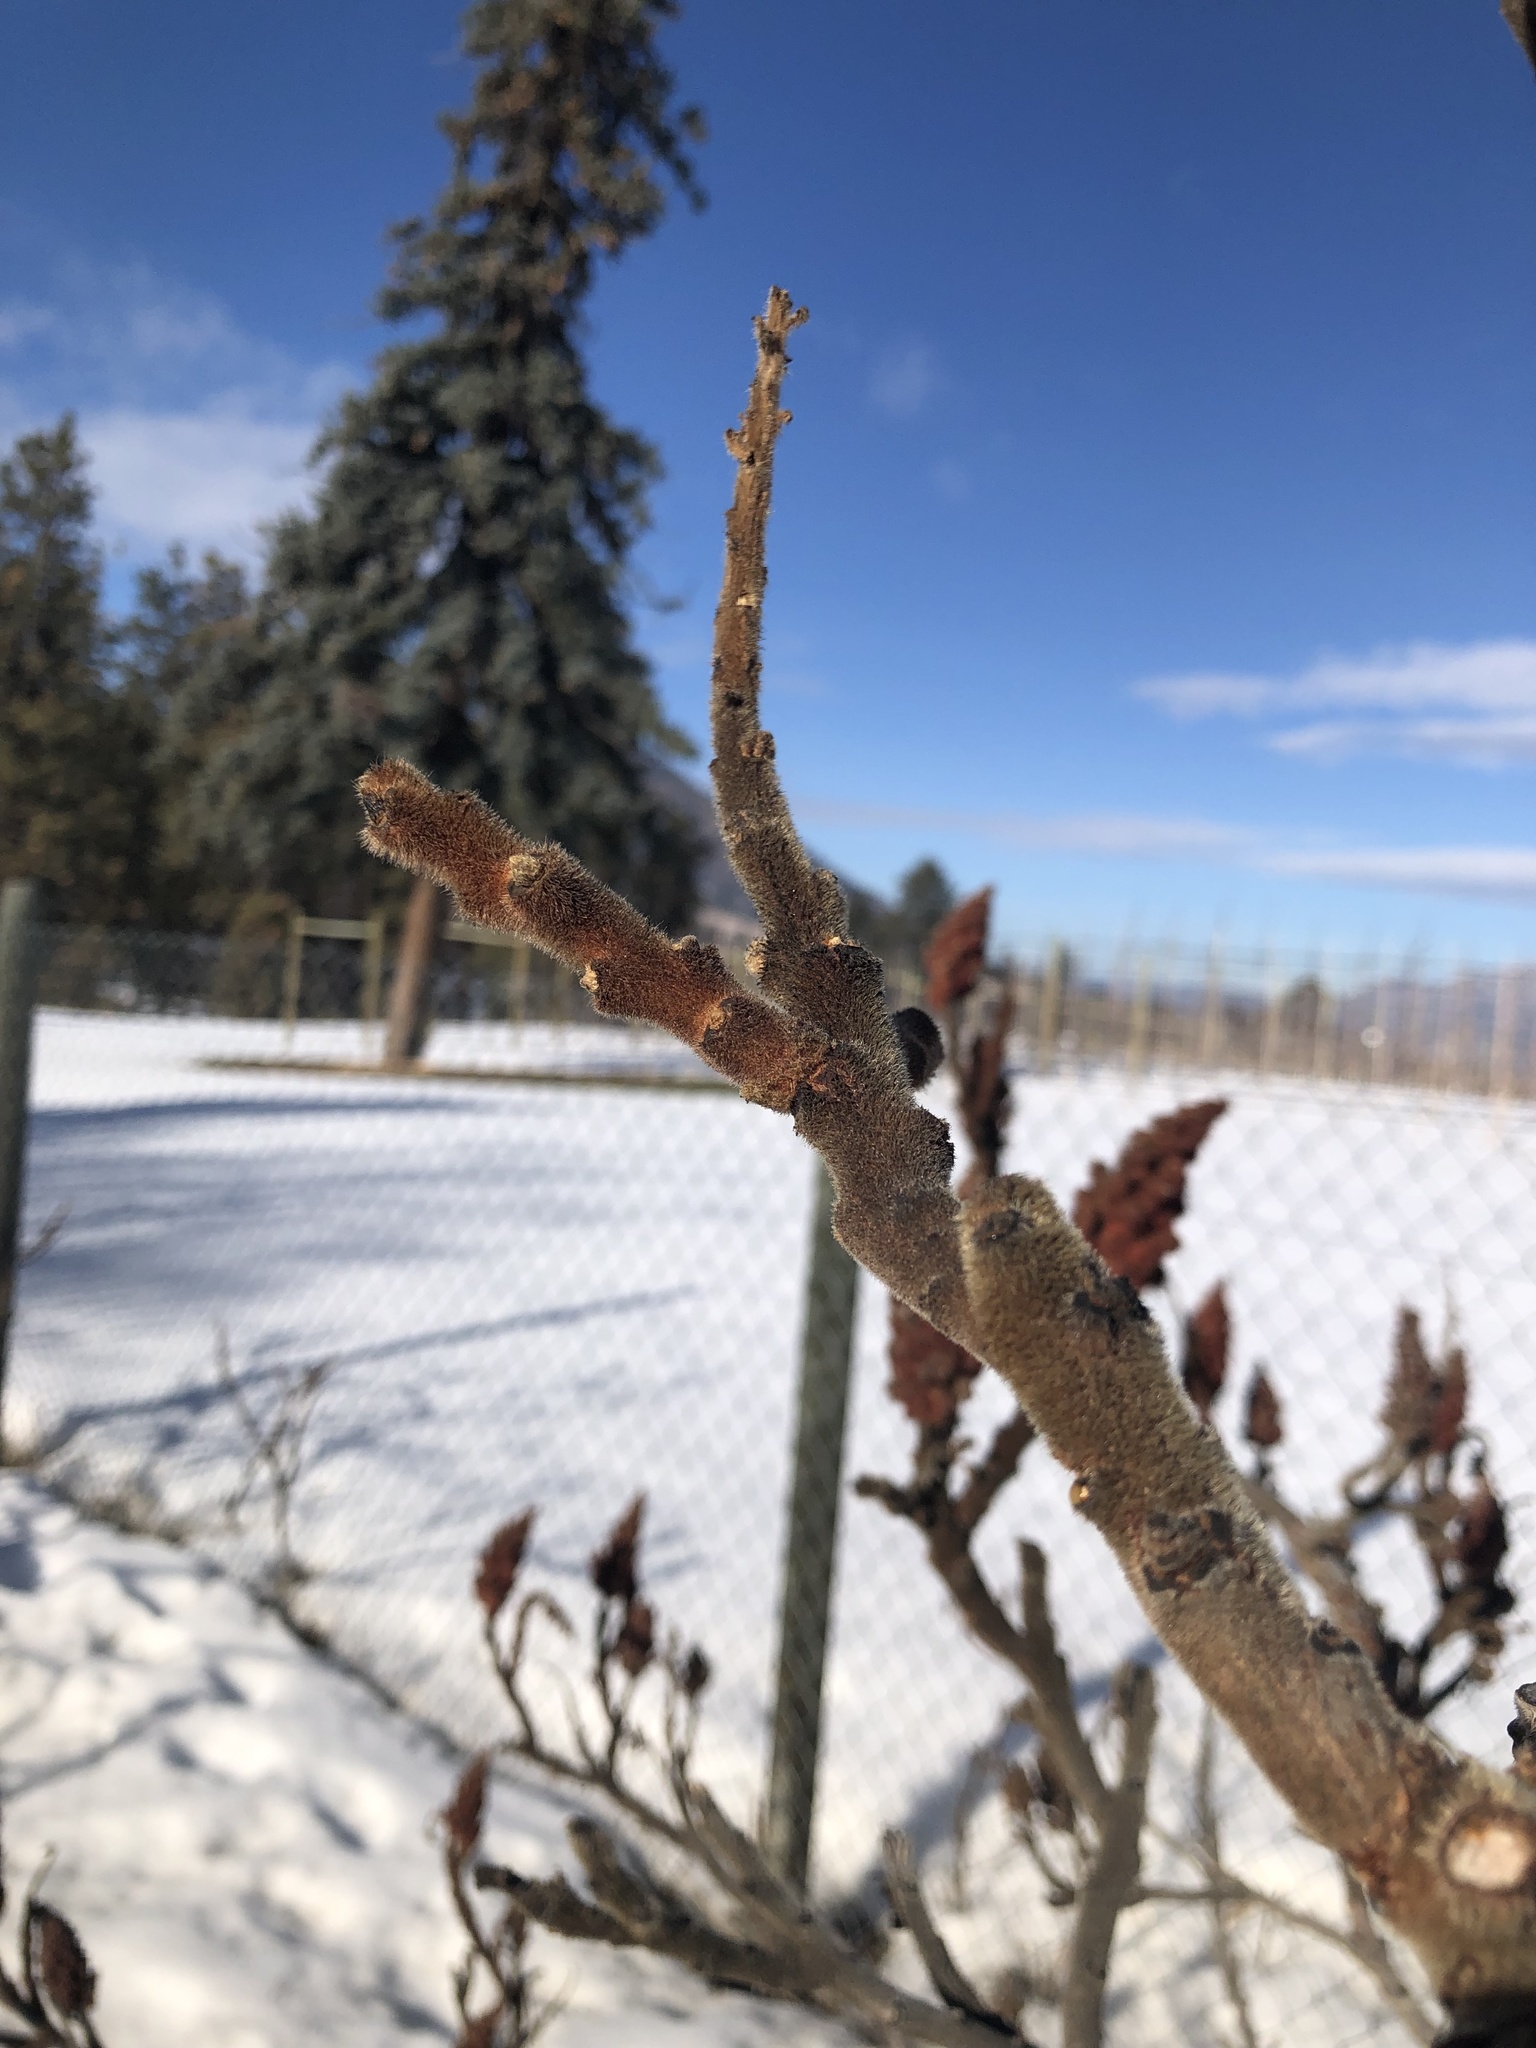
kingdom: Plantae
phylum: Tracheophyta
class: Magnoliopsida
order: Sapindales
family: Anacardiaceae
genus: Rhus
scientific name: Rhus typhina
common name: Staghorn sumac
